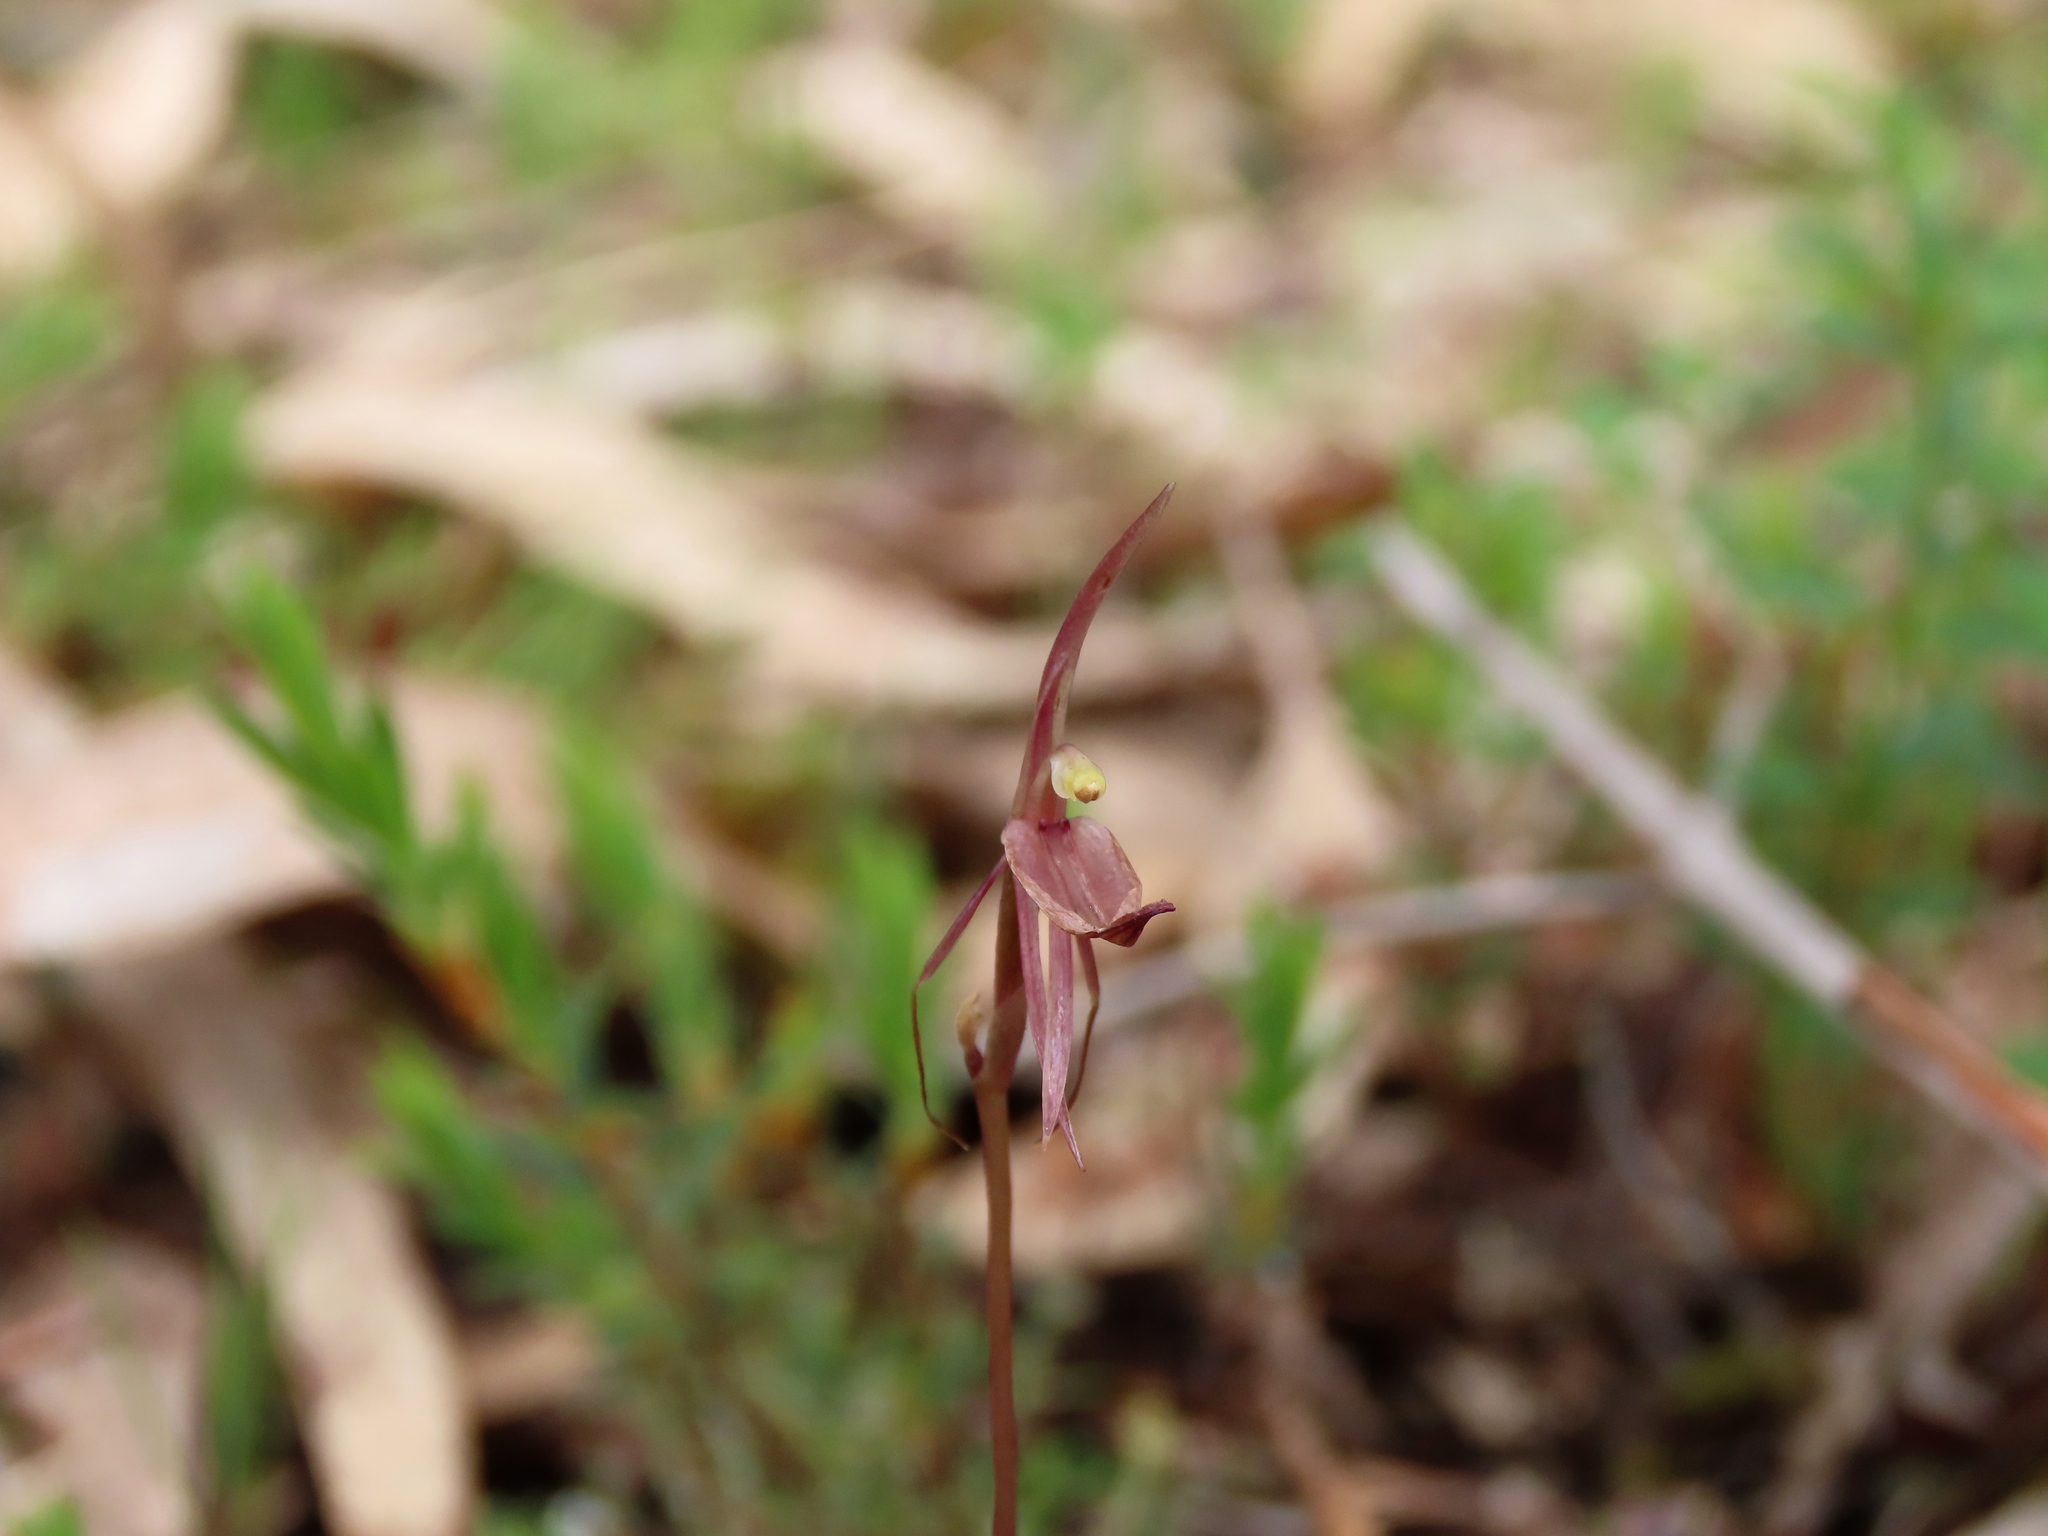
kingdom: Plantae
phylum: Tracheophyta
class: Liliopsida
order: Asparagales
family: Orchidaceae
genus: Cyrtostylis
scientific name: Cyrtostylis reniformis
